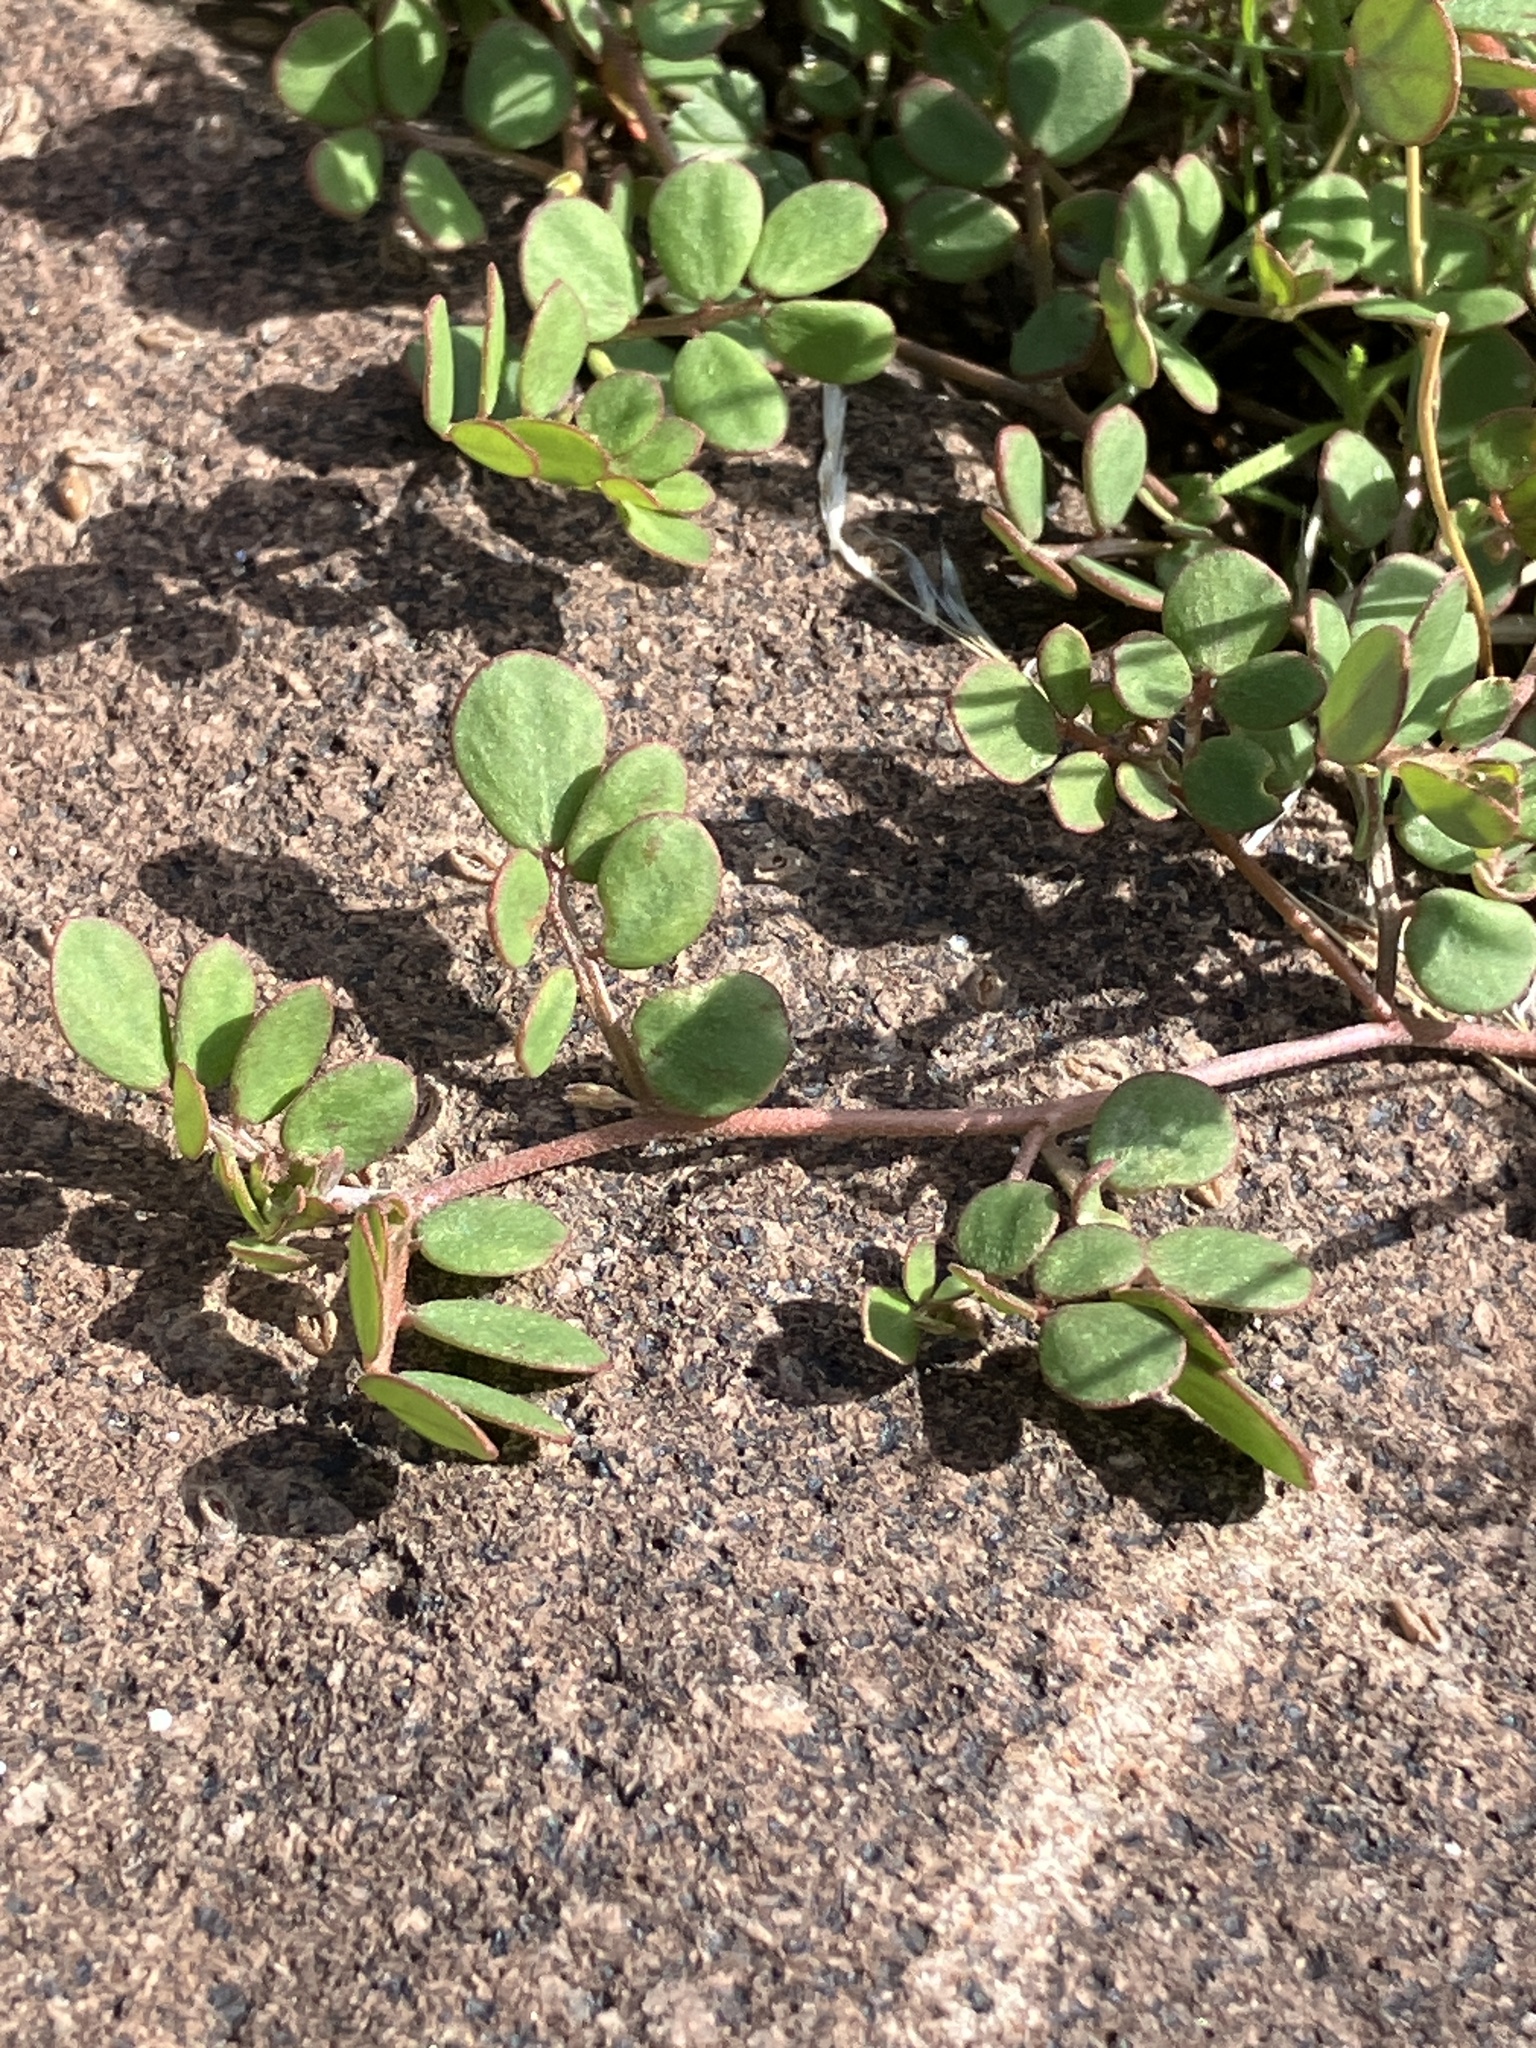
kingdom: Plantae
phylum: Tracheophyta
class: Magnoliopsida
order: Fabales
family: Fabaceae
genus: Acmispon
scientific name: Acmispon maritimus
